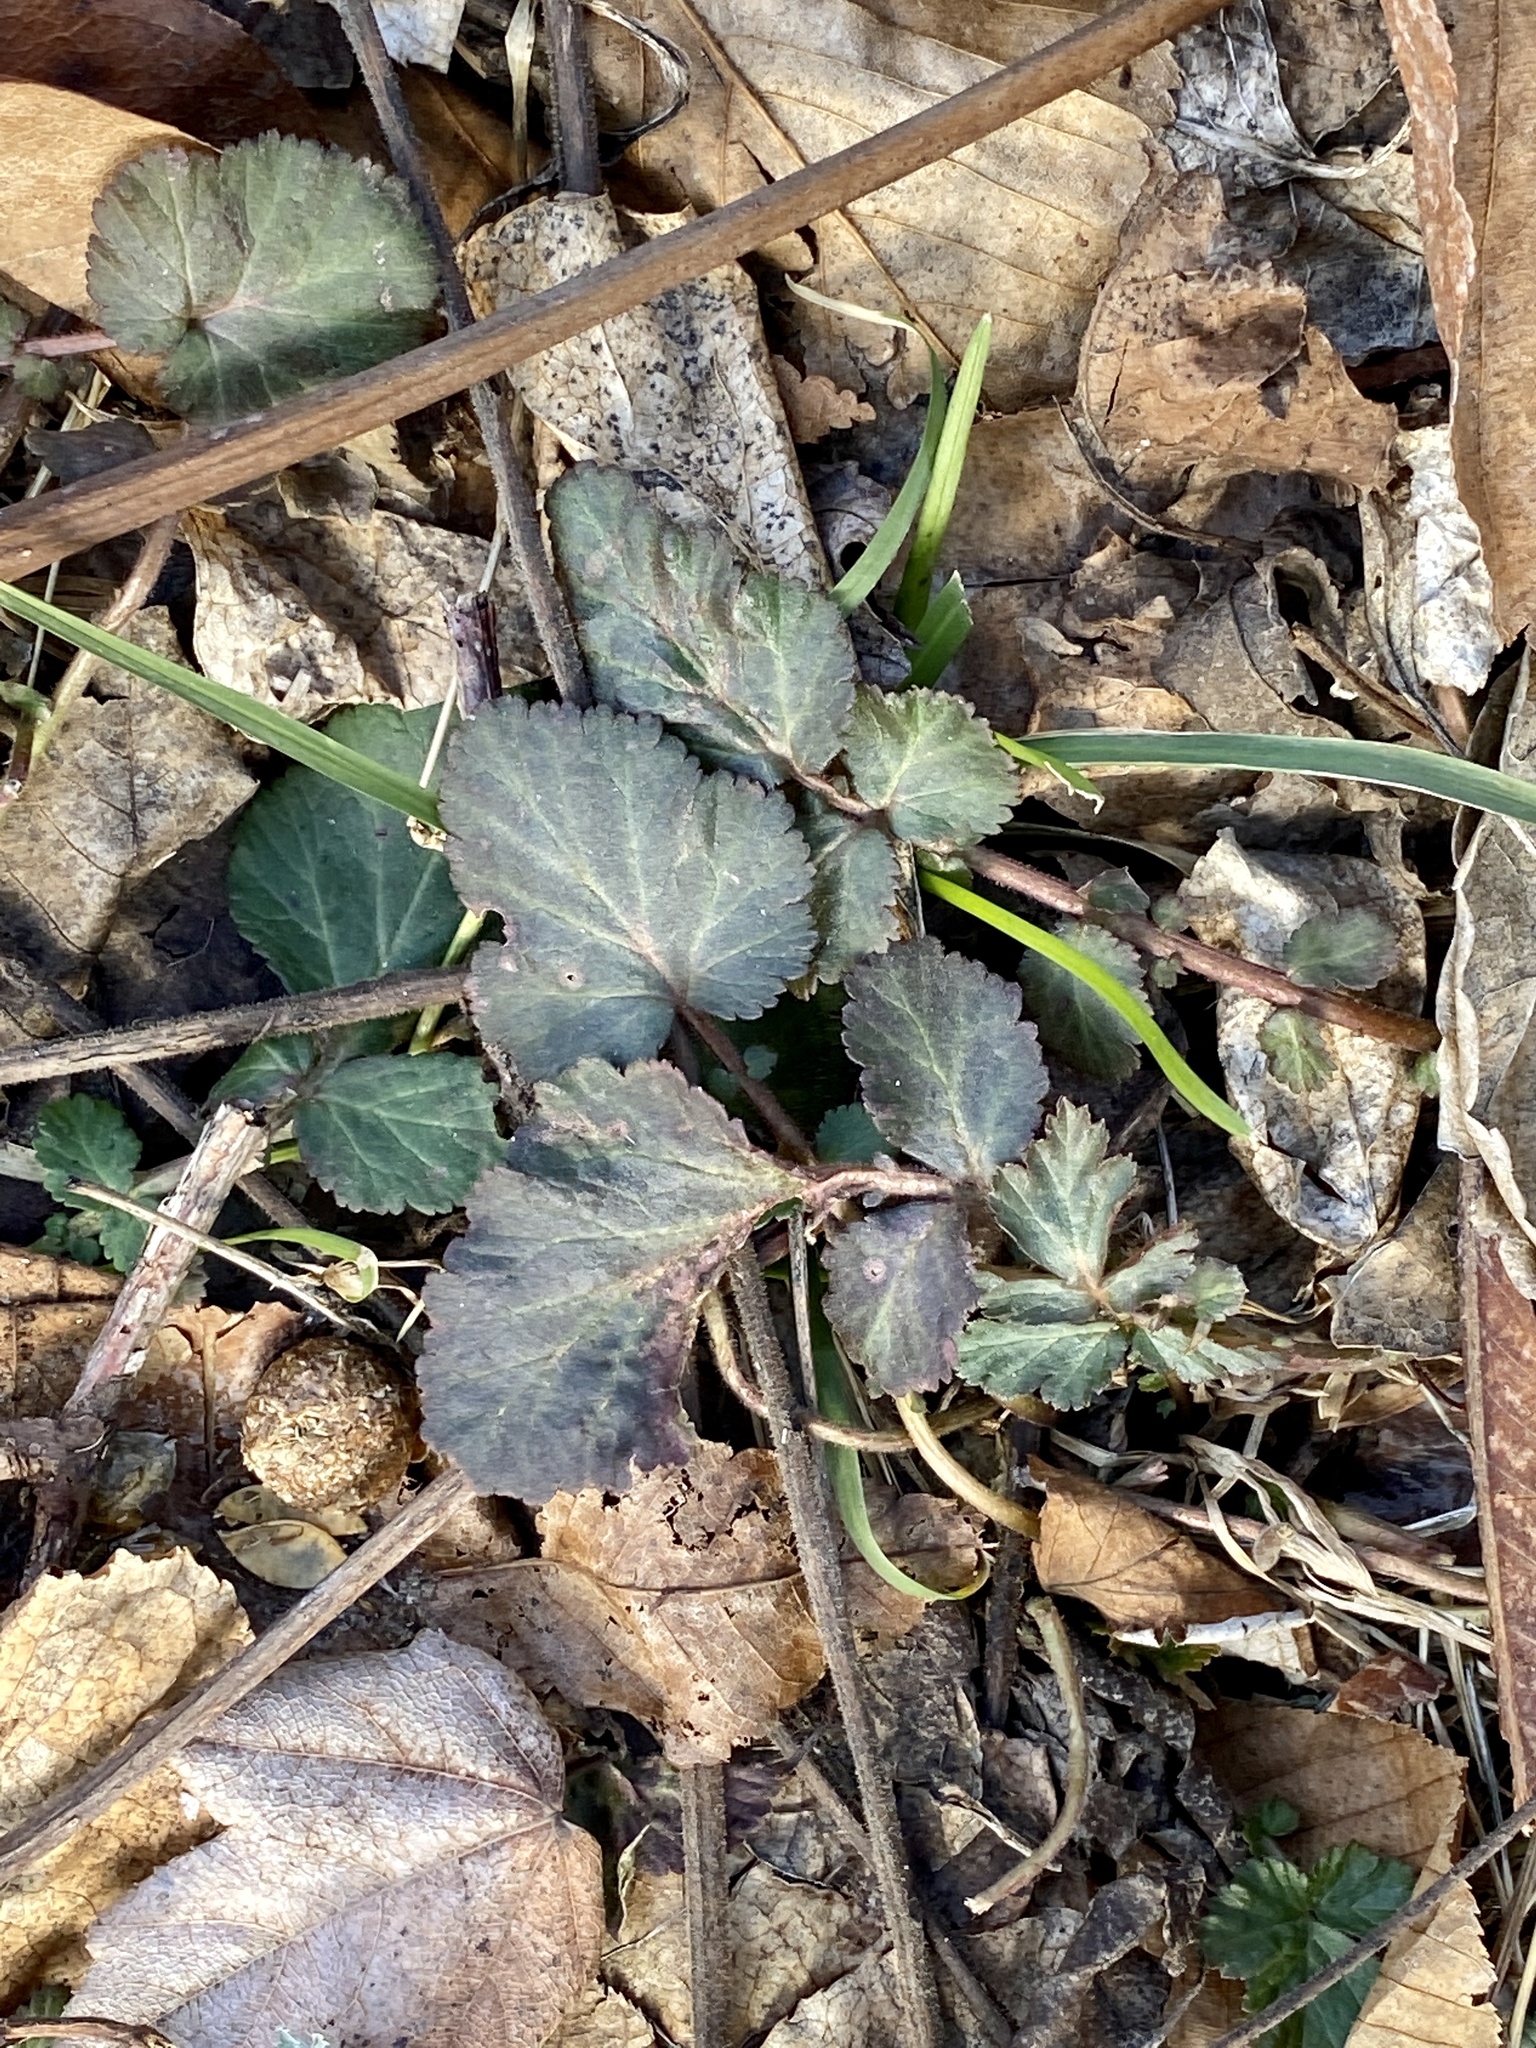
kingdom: Plantae
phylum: Tracheophyta
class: Magnoliopsida
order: Rosales
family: Rosaceae
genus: Geum
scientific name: Geum canadense
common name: White avens
